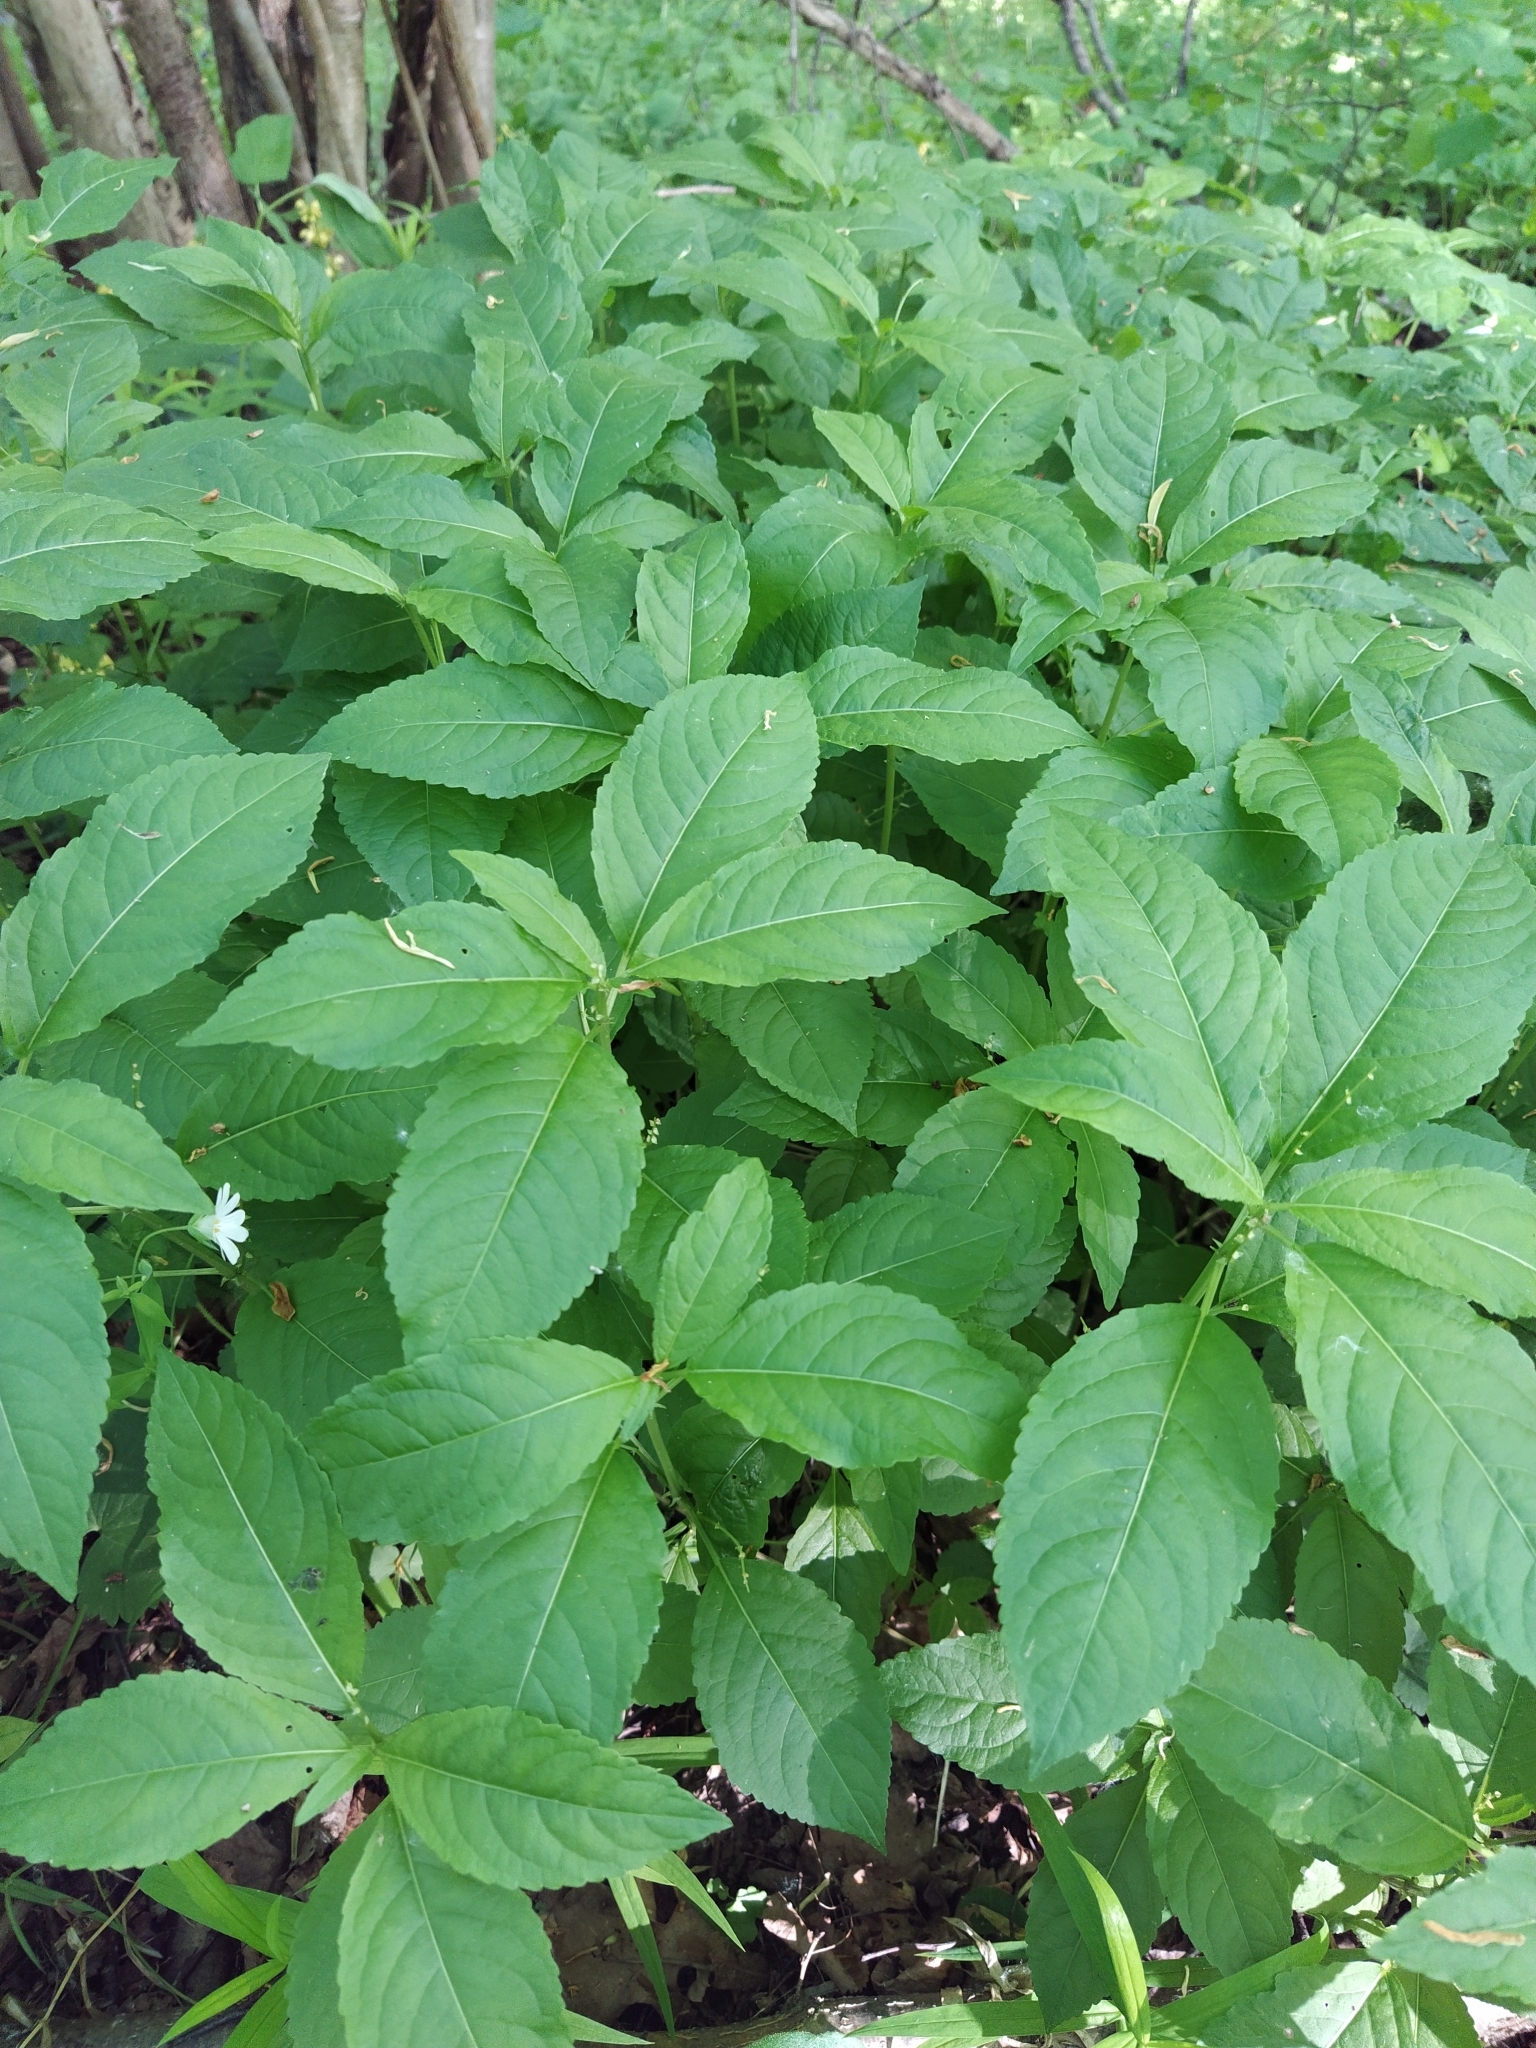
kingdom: Plantae
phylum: Tracheophyta
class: Magnoliopsida
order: Malpighiales
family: Euphorbiaceae
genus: Mercurialis
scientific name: Mercurialis perennis
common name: Dog mercury
